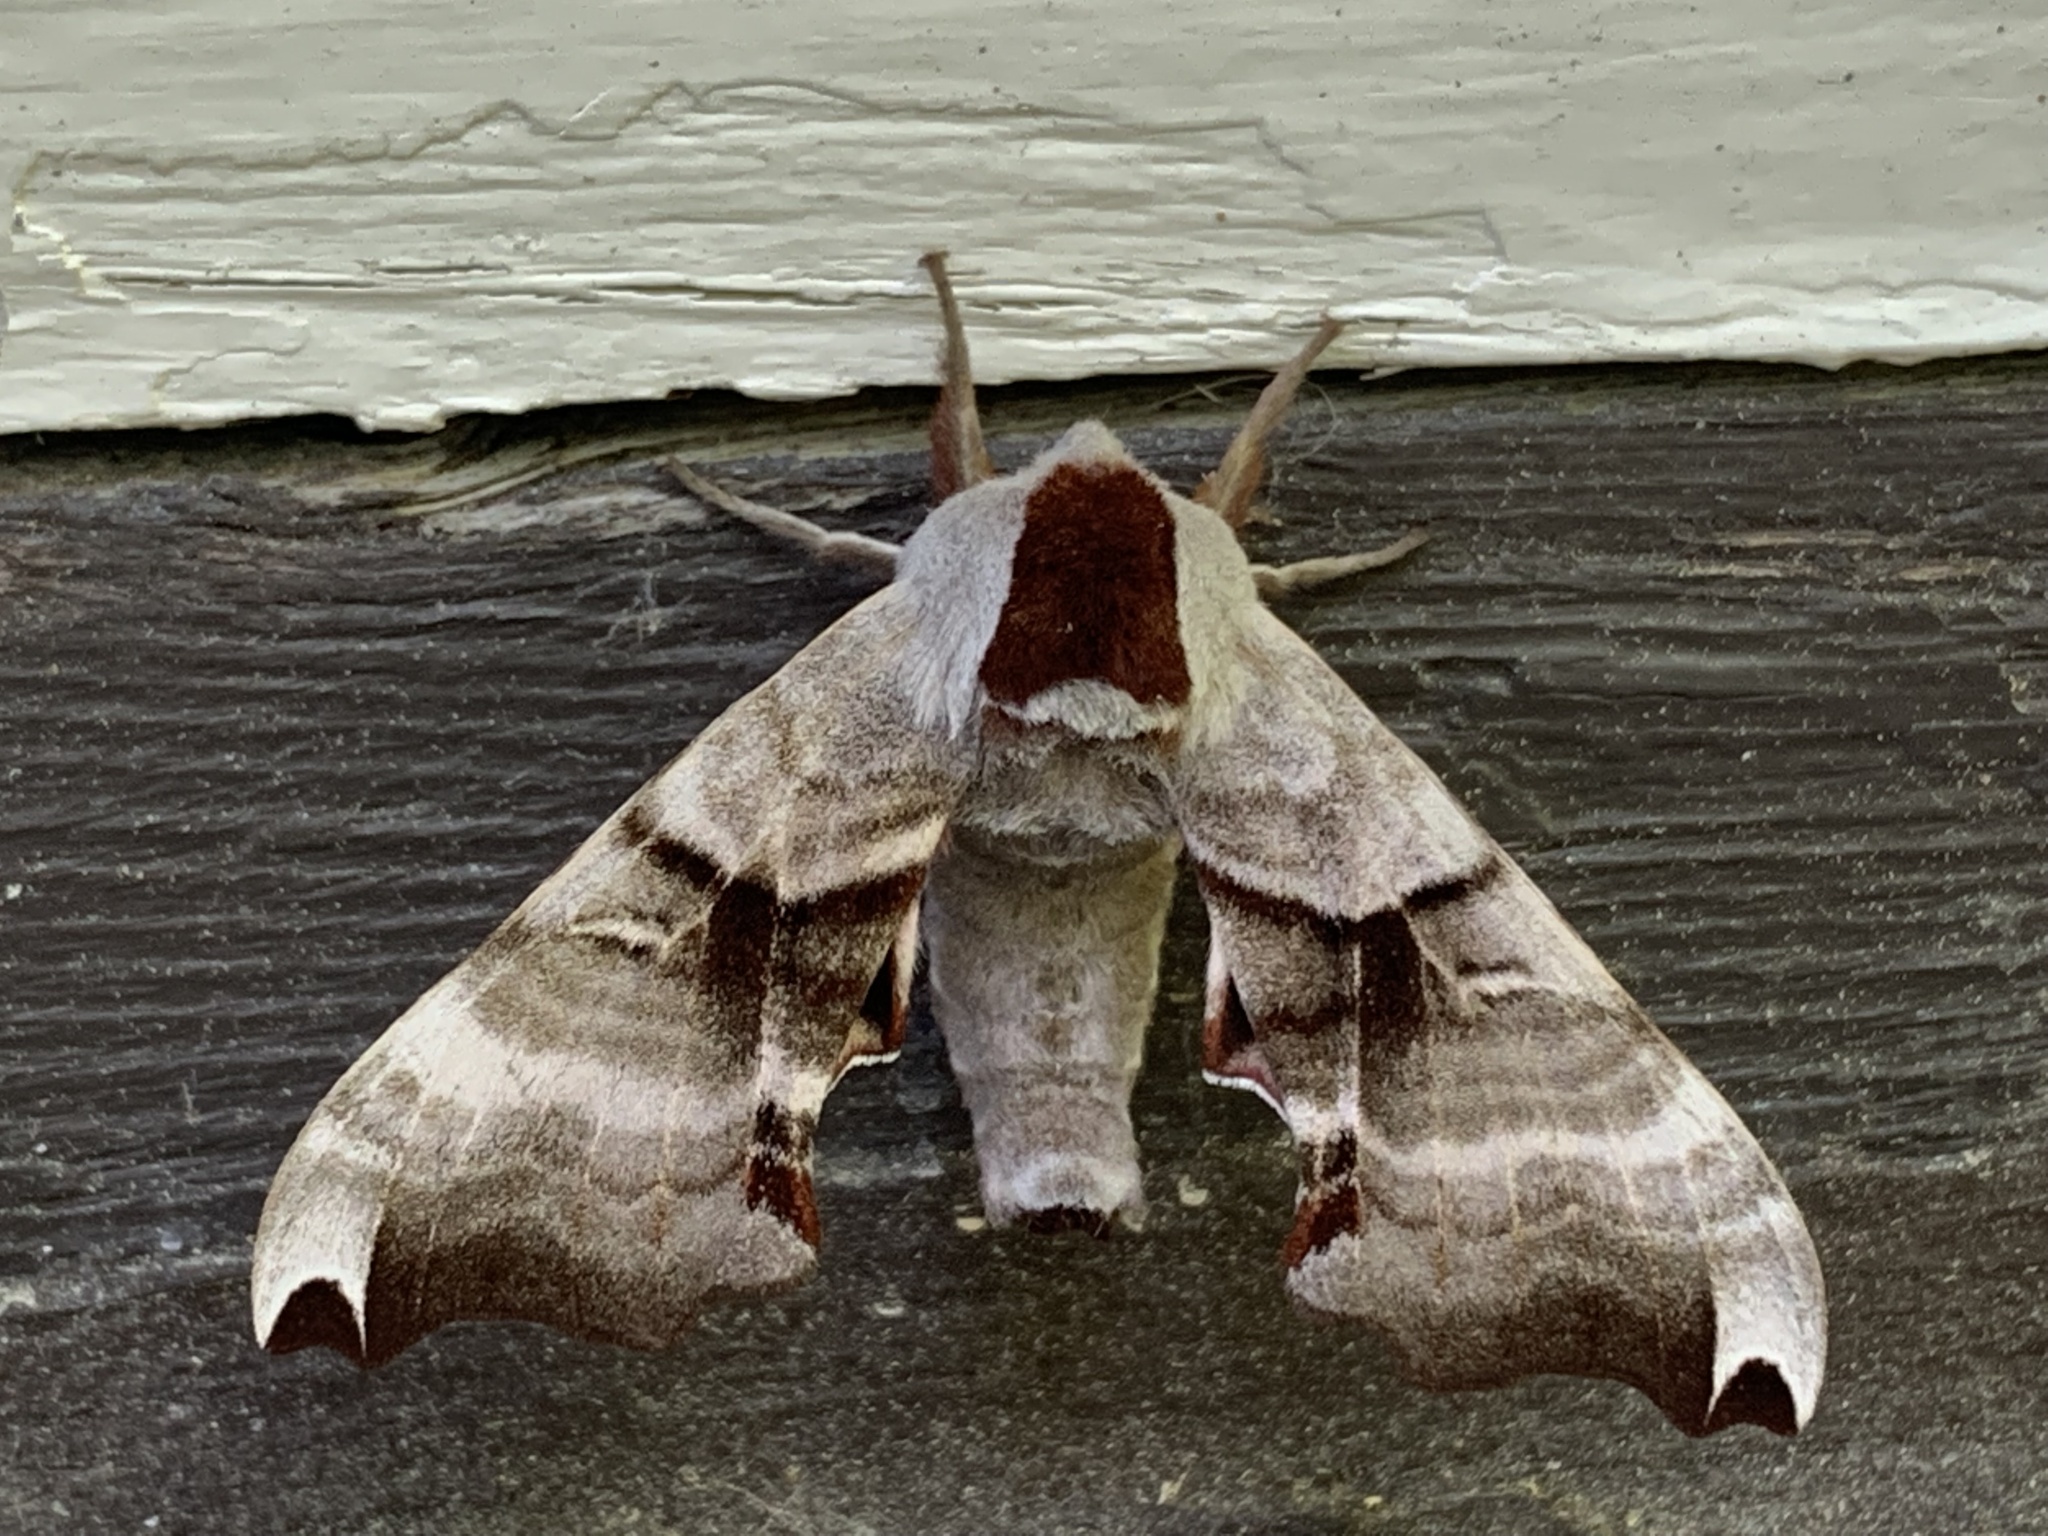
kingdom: Animalia
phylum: Arthropoda
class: Insecta
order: Lepidoptera
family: Sphingidae
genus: Smerinthus
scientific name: Smerinthus jamaicensis
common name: Twin spotted sphinx
